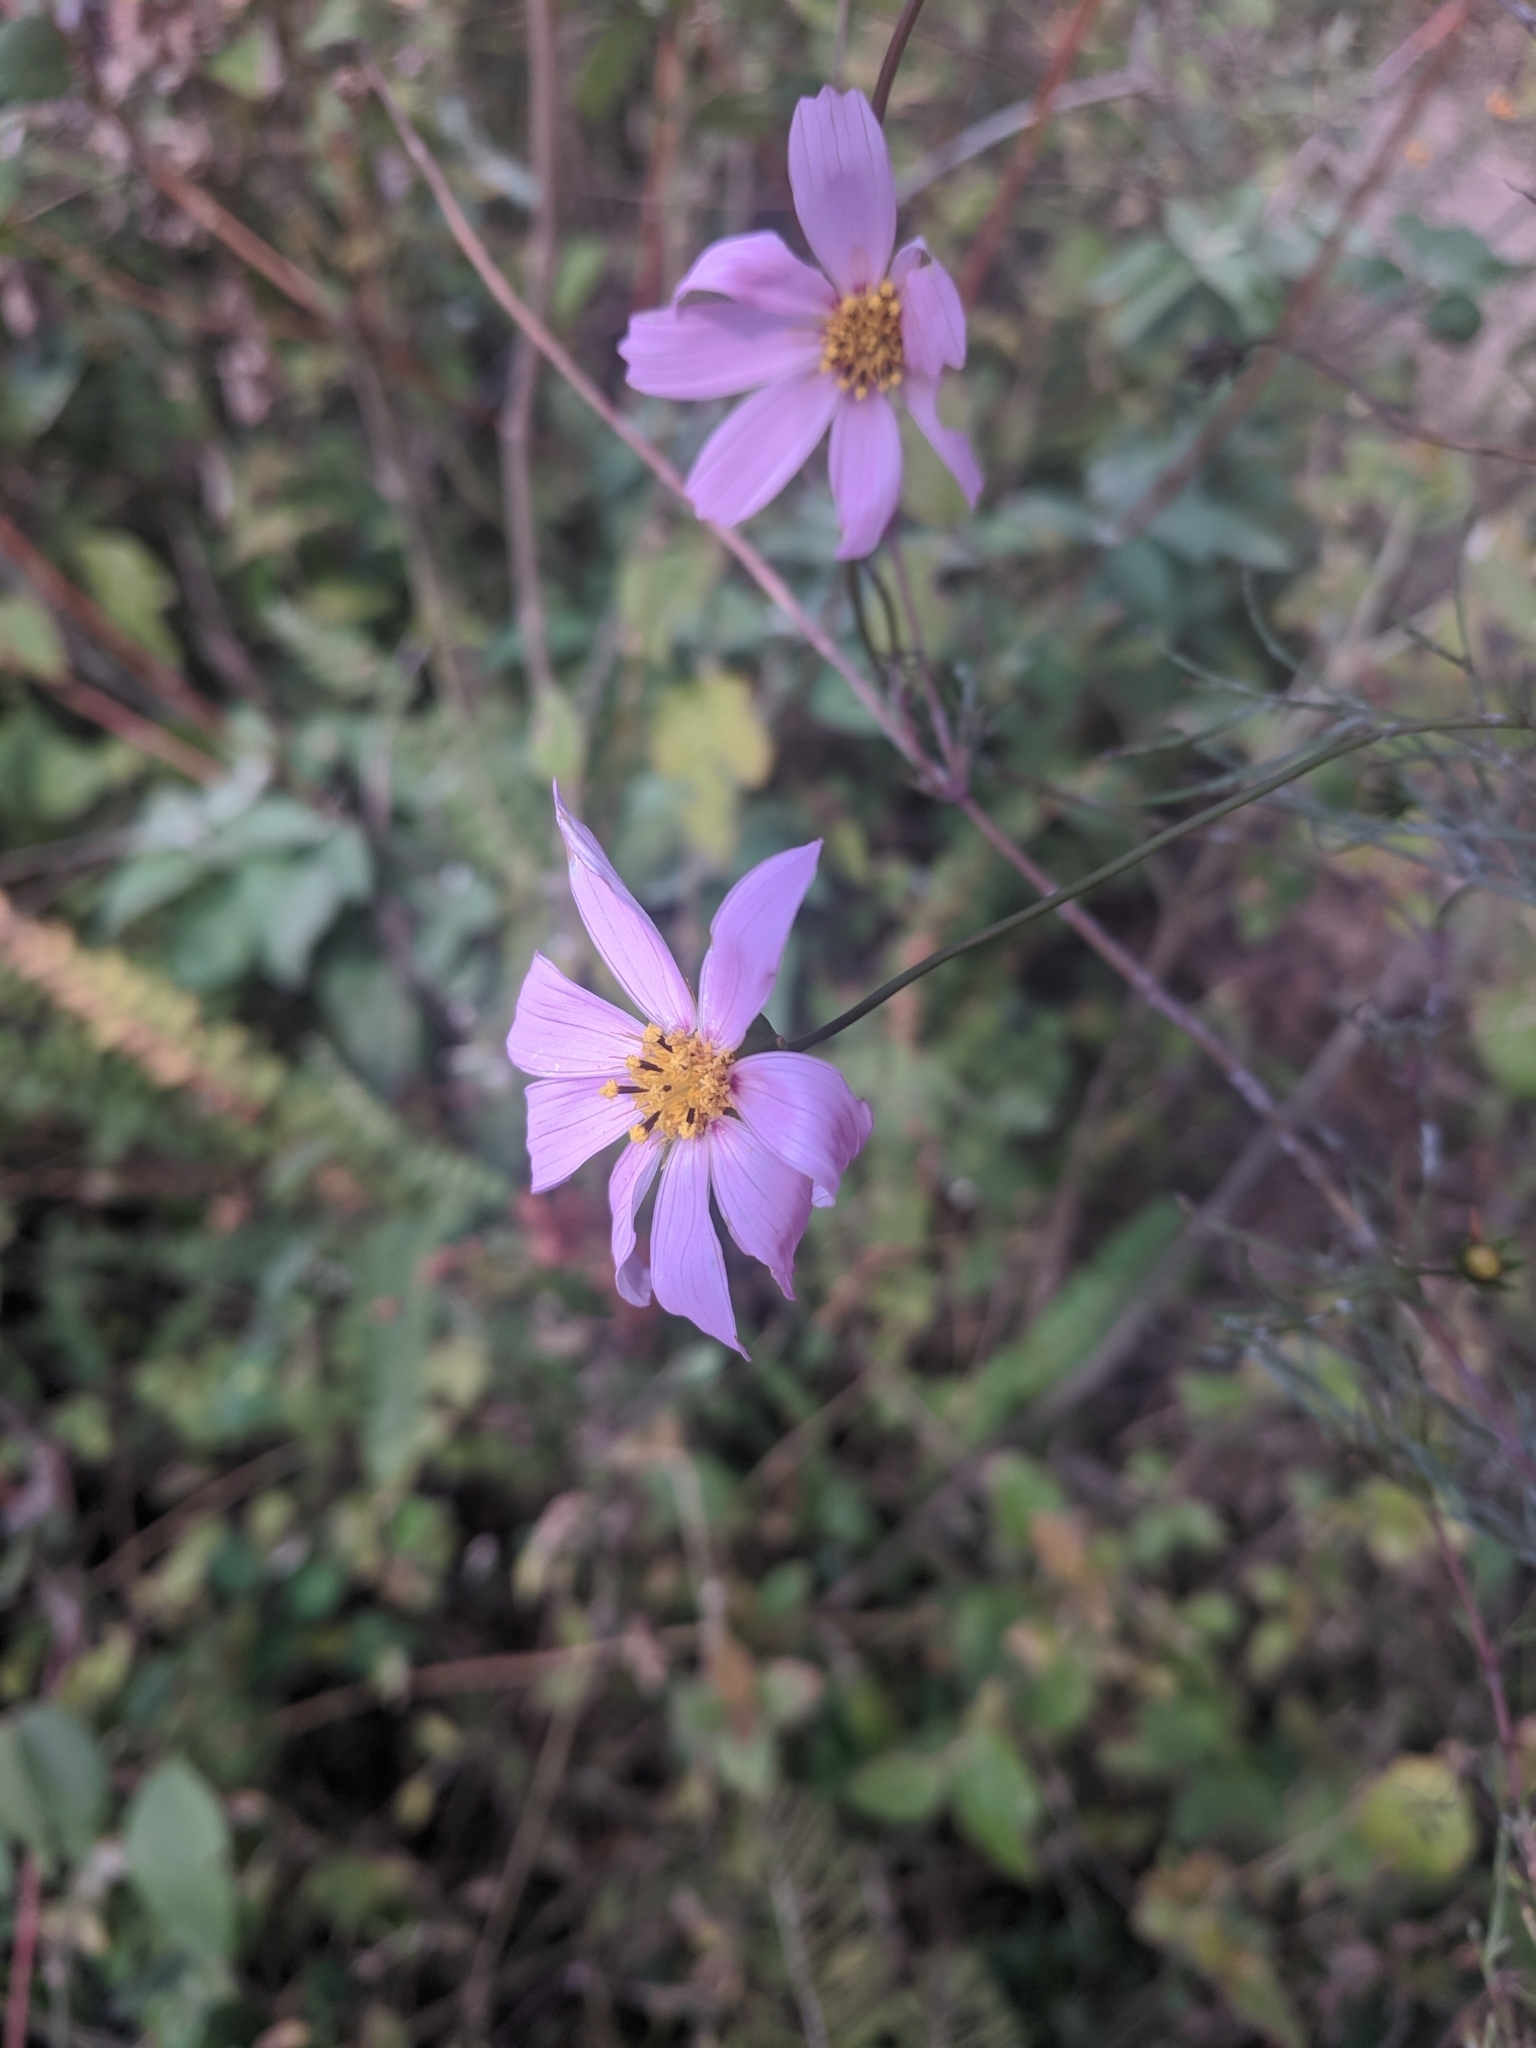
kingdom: Plantae
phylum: Tracheophyta
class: Magnoliopsida
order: Asterales
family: Asteraceae
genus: Cosmos
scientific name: Cosmos bipinnatus
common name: Garden cosmos
